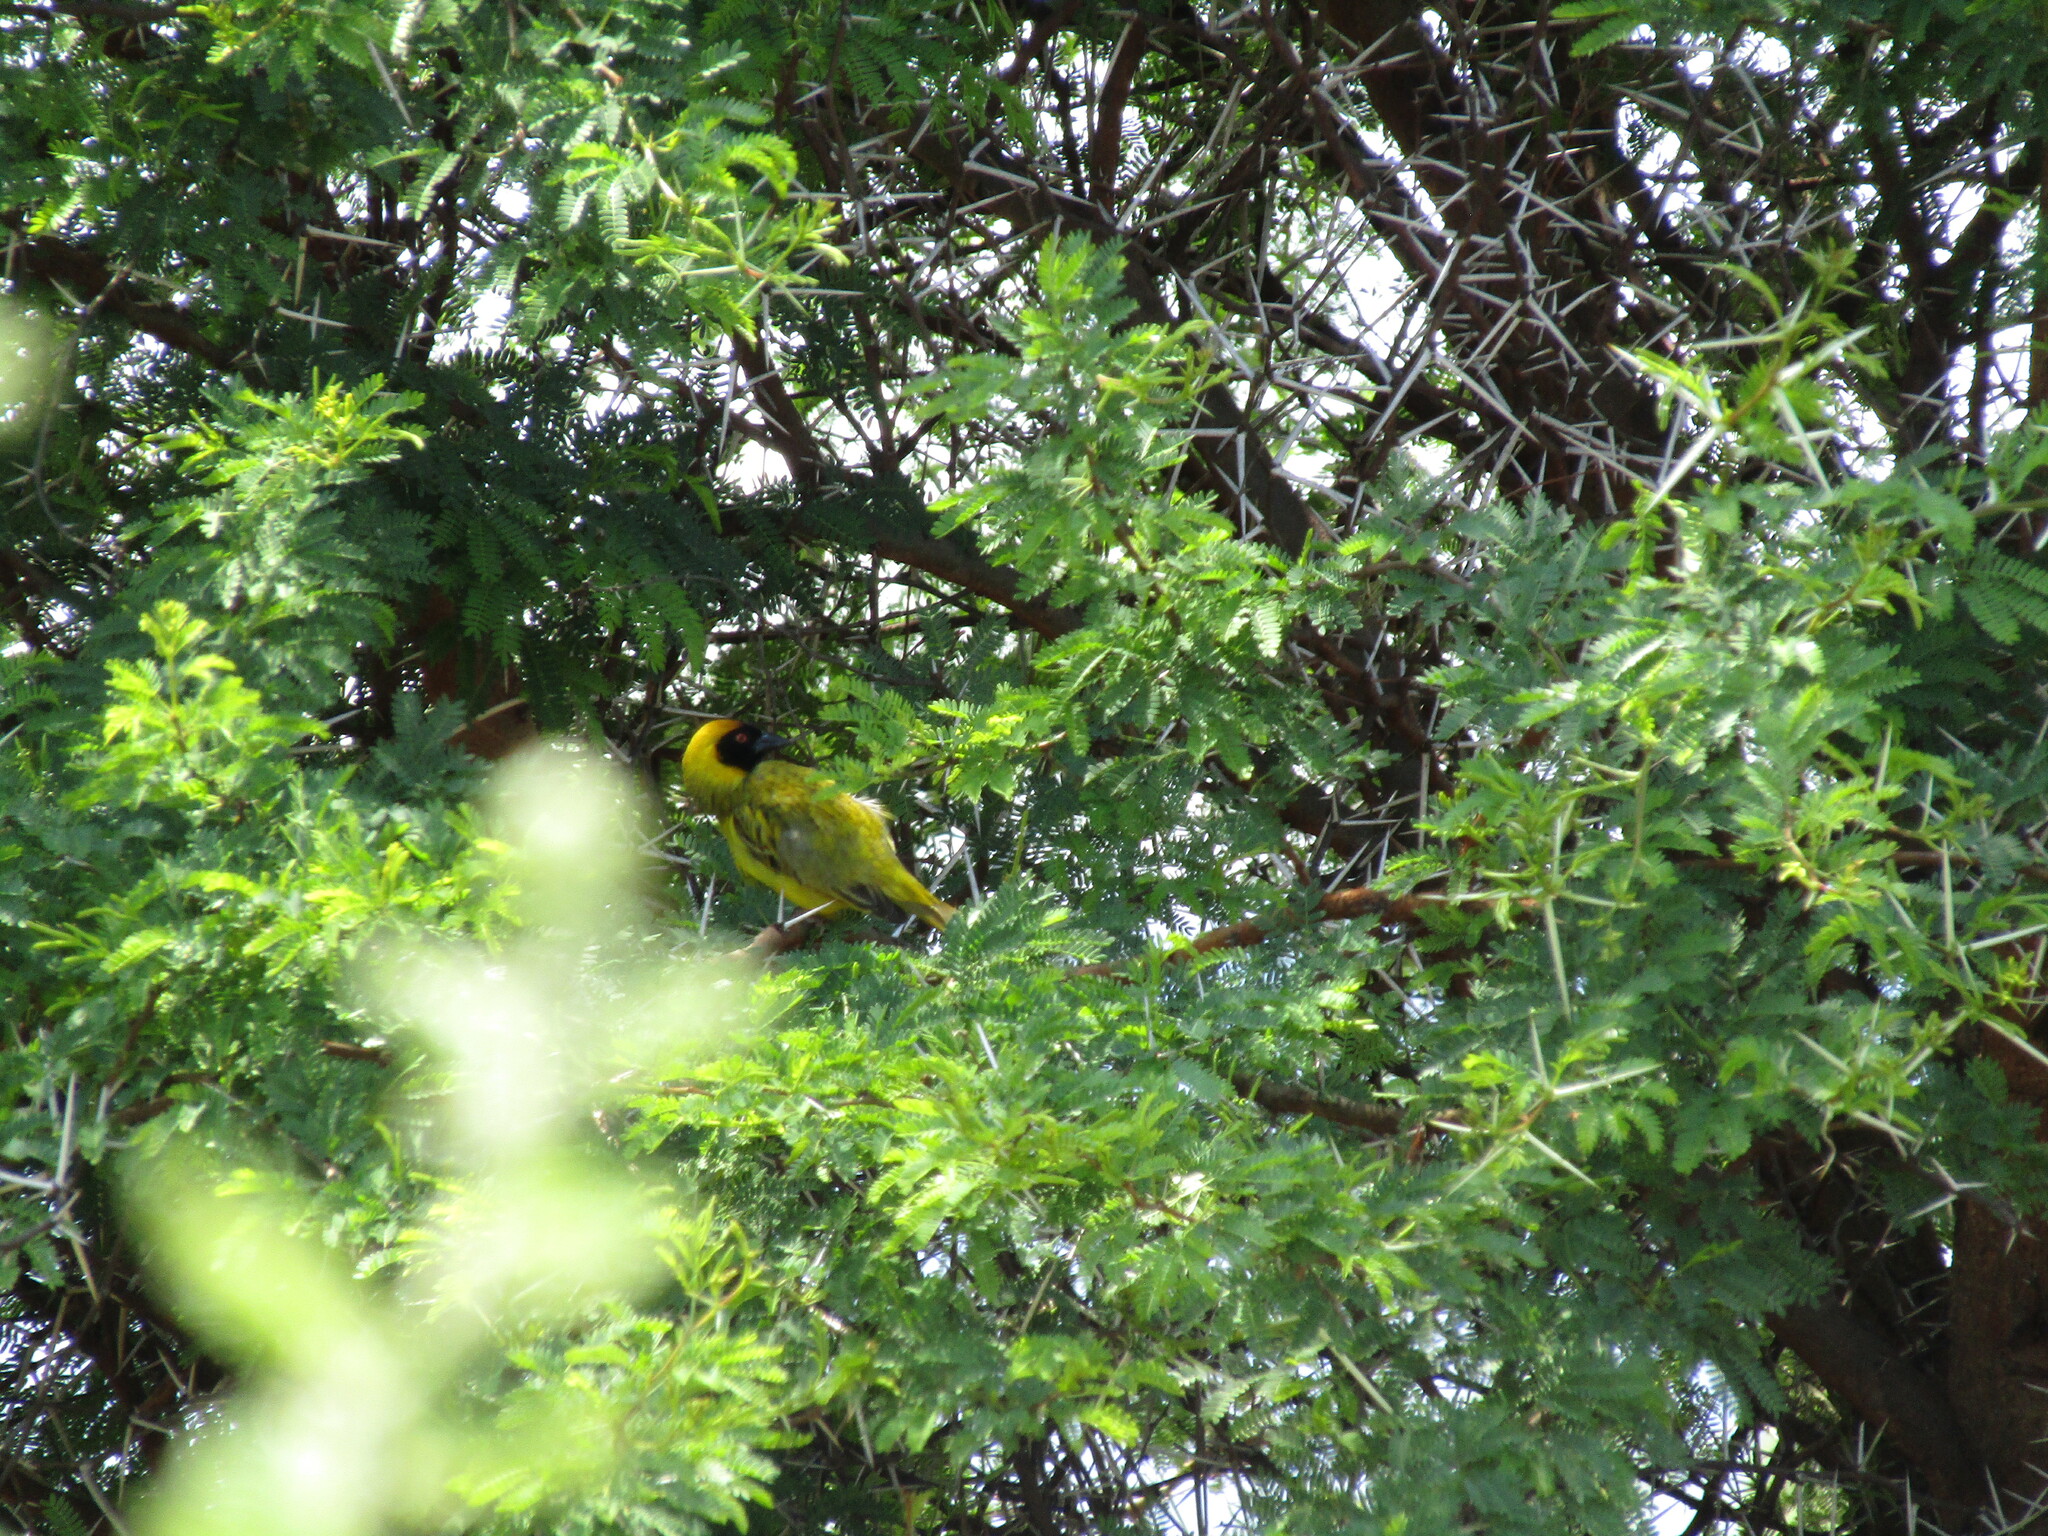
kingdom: Animalia
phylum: Chordata
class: Aves
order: Passeriformes
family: Ploceidae
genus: Ploceus
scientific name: Ploceus velatus
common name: Southern masked weaver
